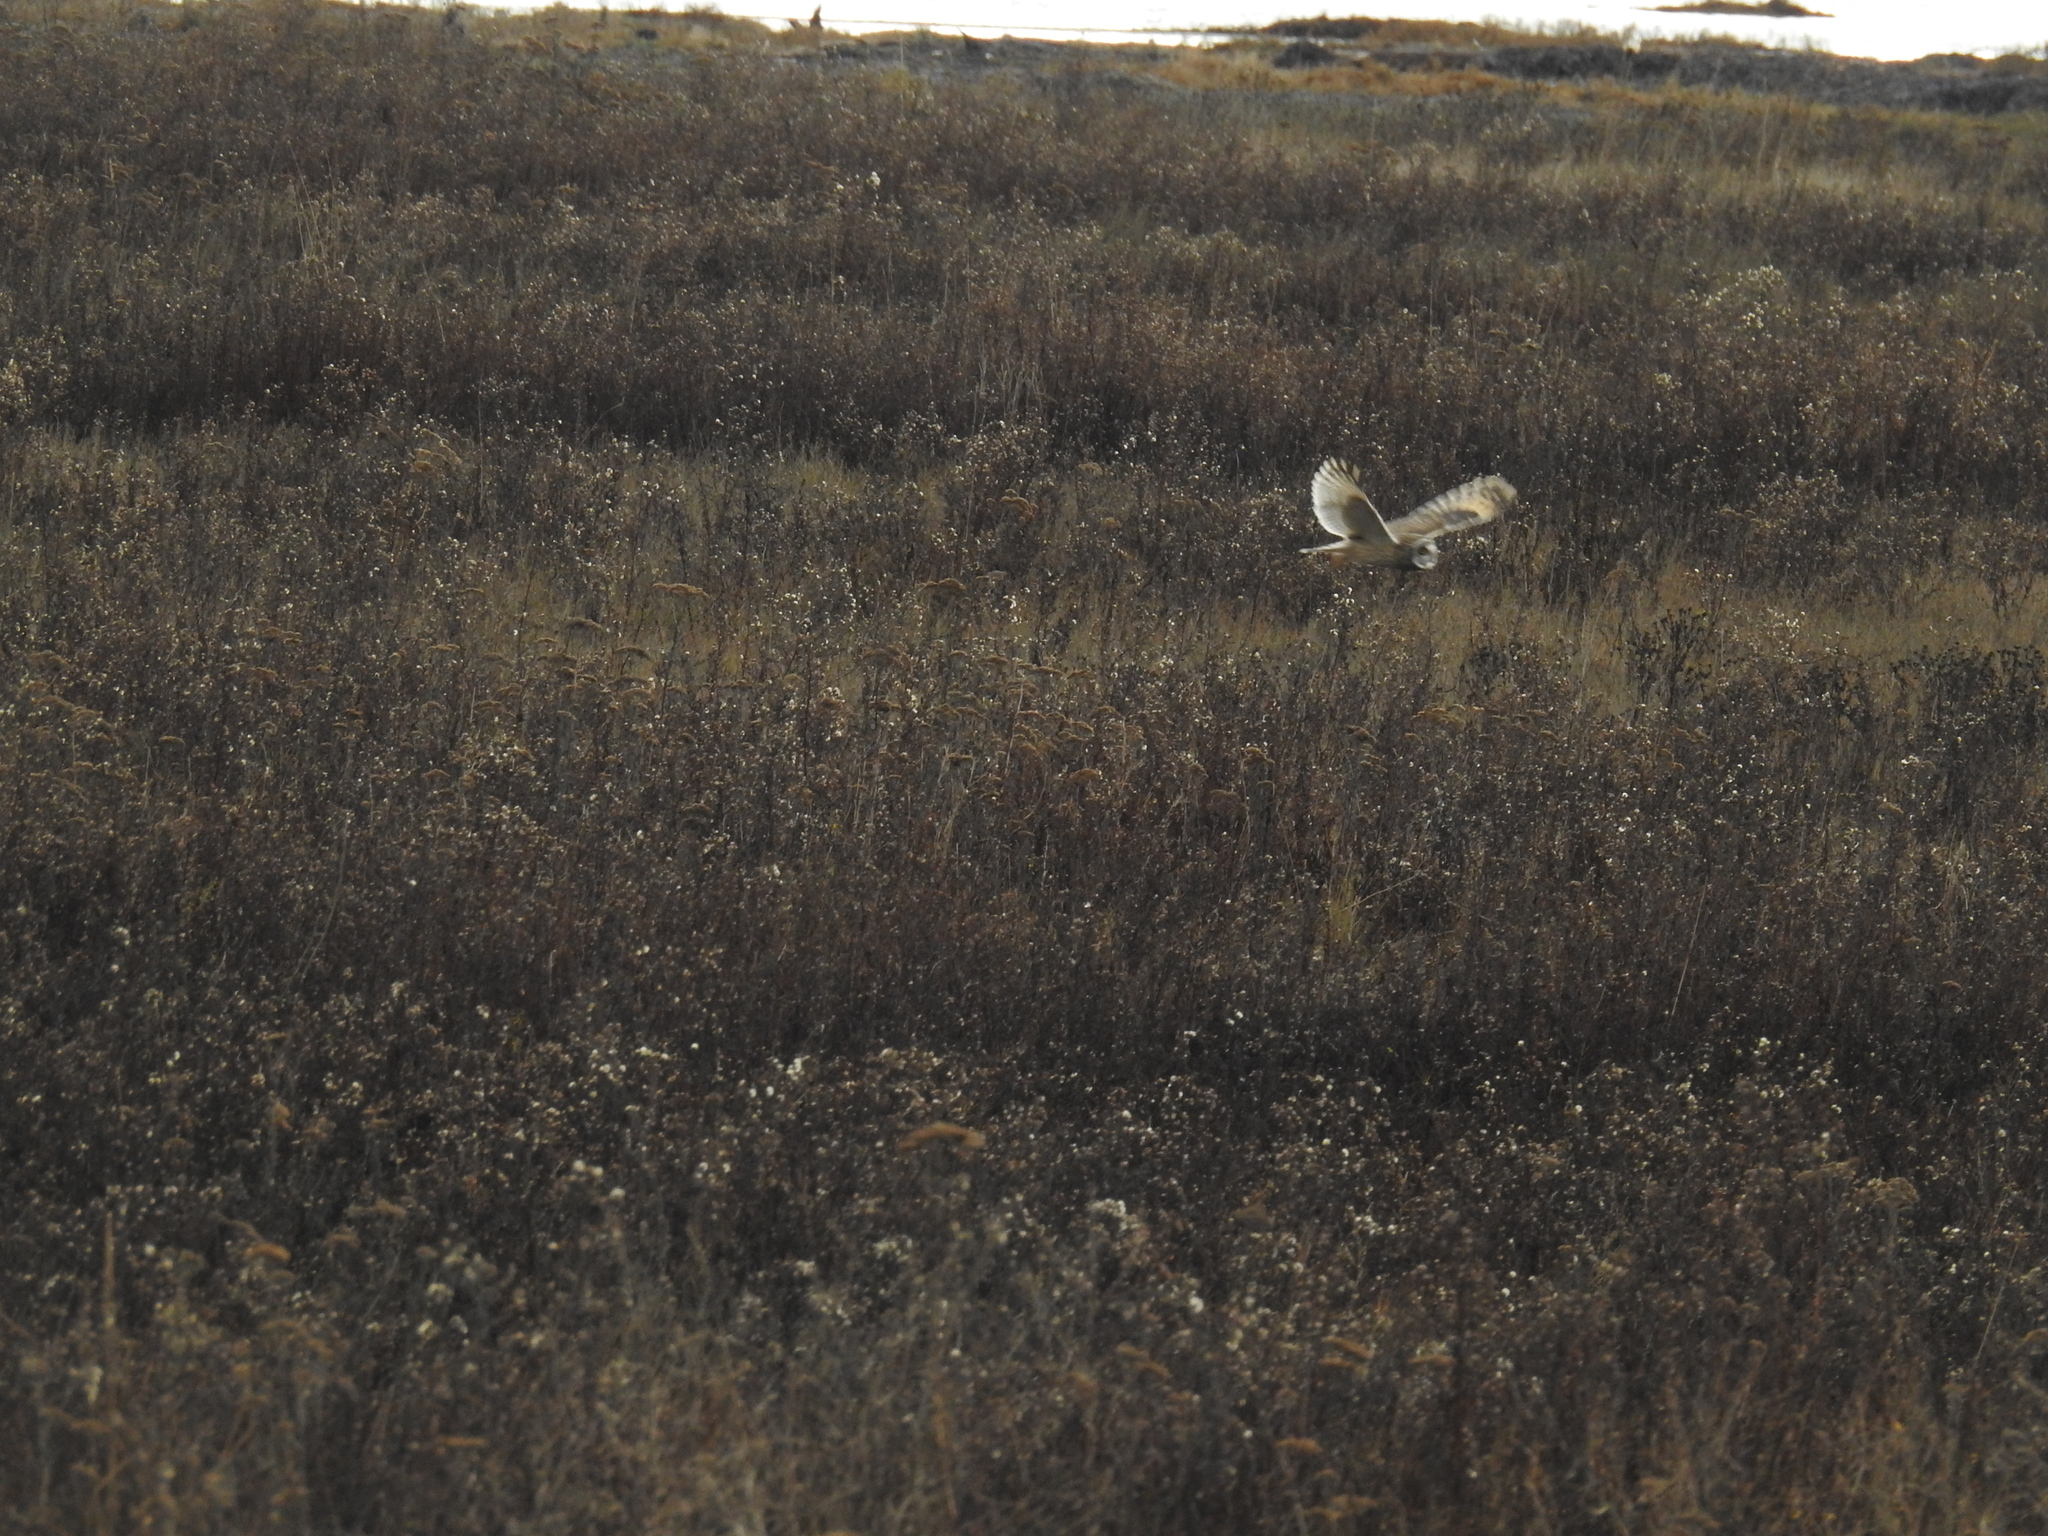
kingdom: Animalia
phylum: Chordata
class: Aves
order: Strigiformes
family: Strigidae
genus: Asio
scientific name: Asio flammeus
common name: Short-eared owl
